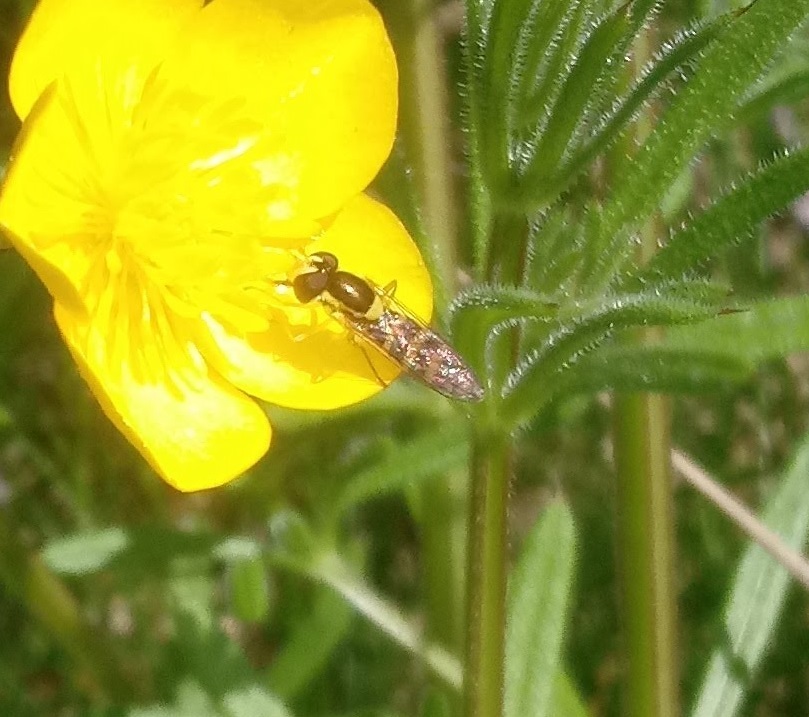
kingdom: Animalia
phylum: Arthropoda
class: Insecta
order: Diptera
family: Syrphidae
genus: Sphaerophoria
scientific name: Sphaerophoria
